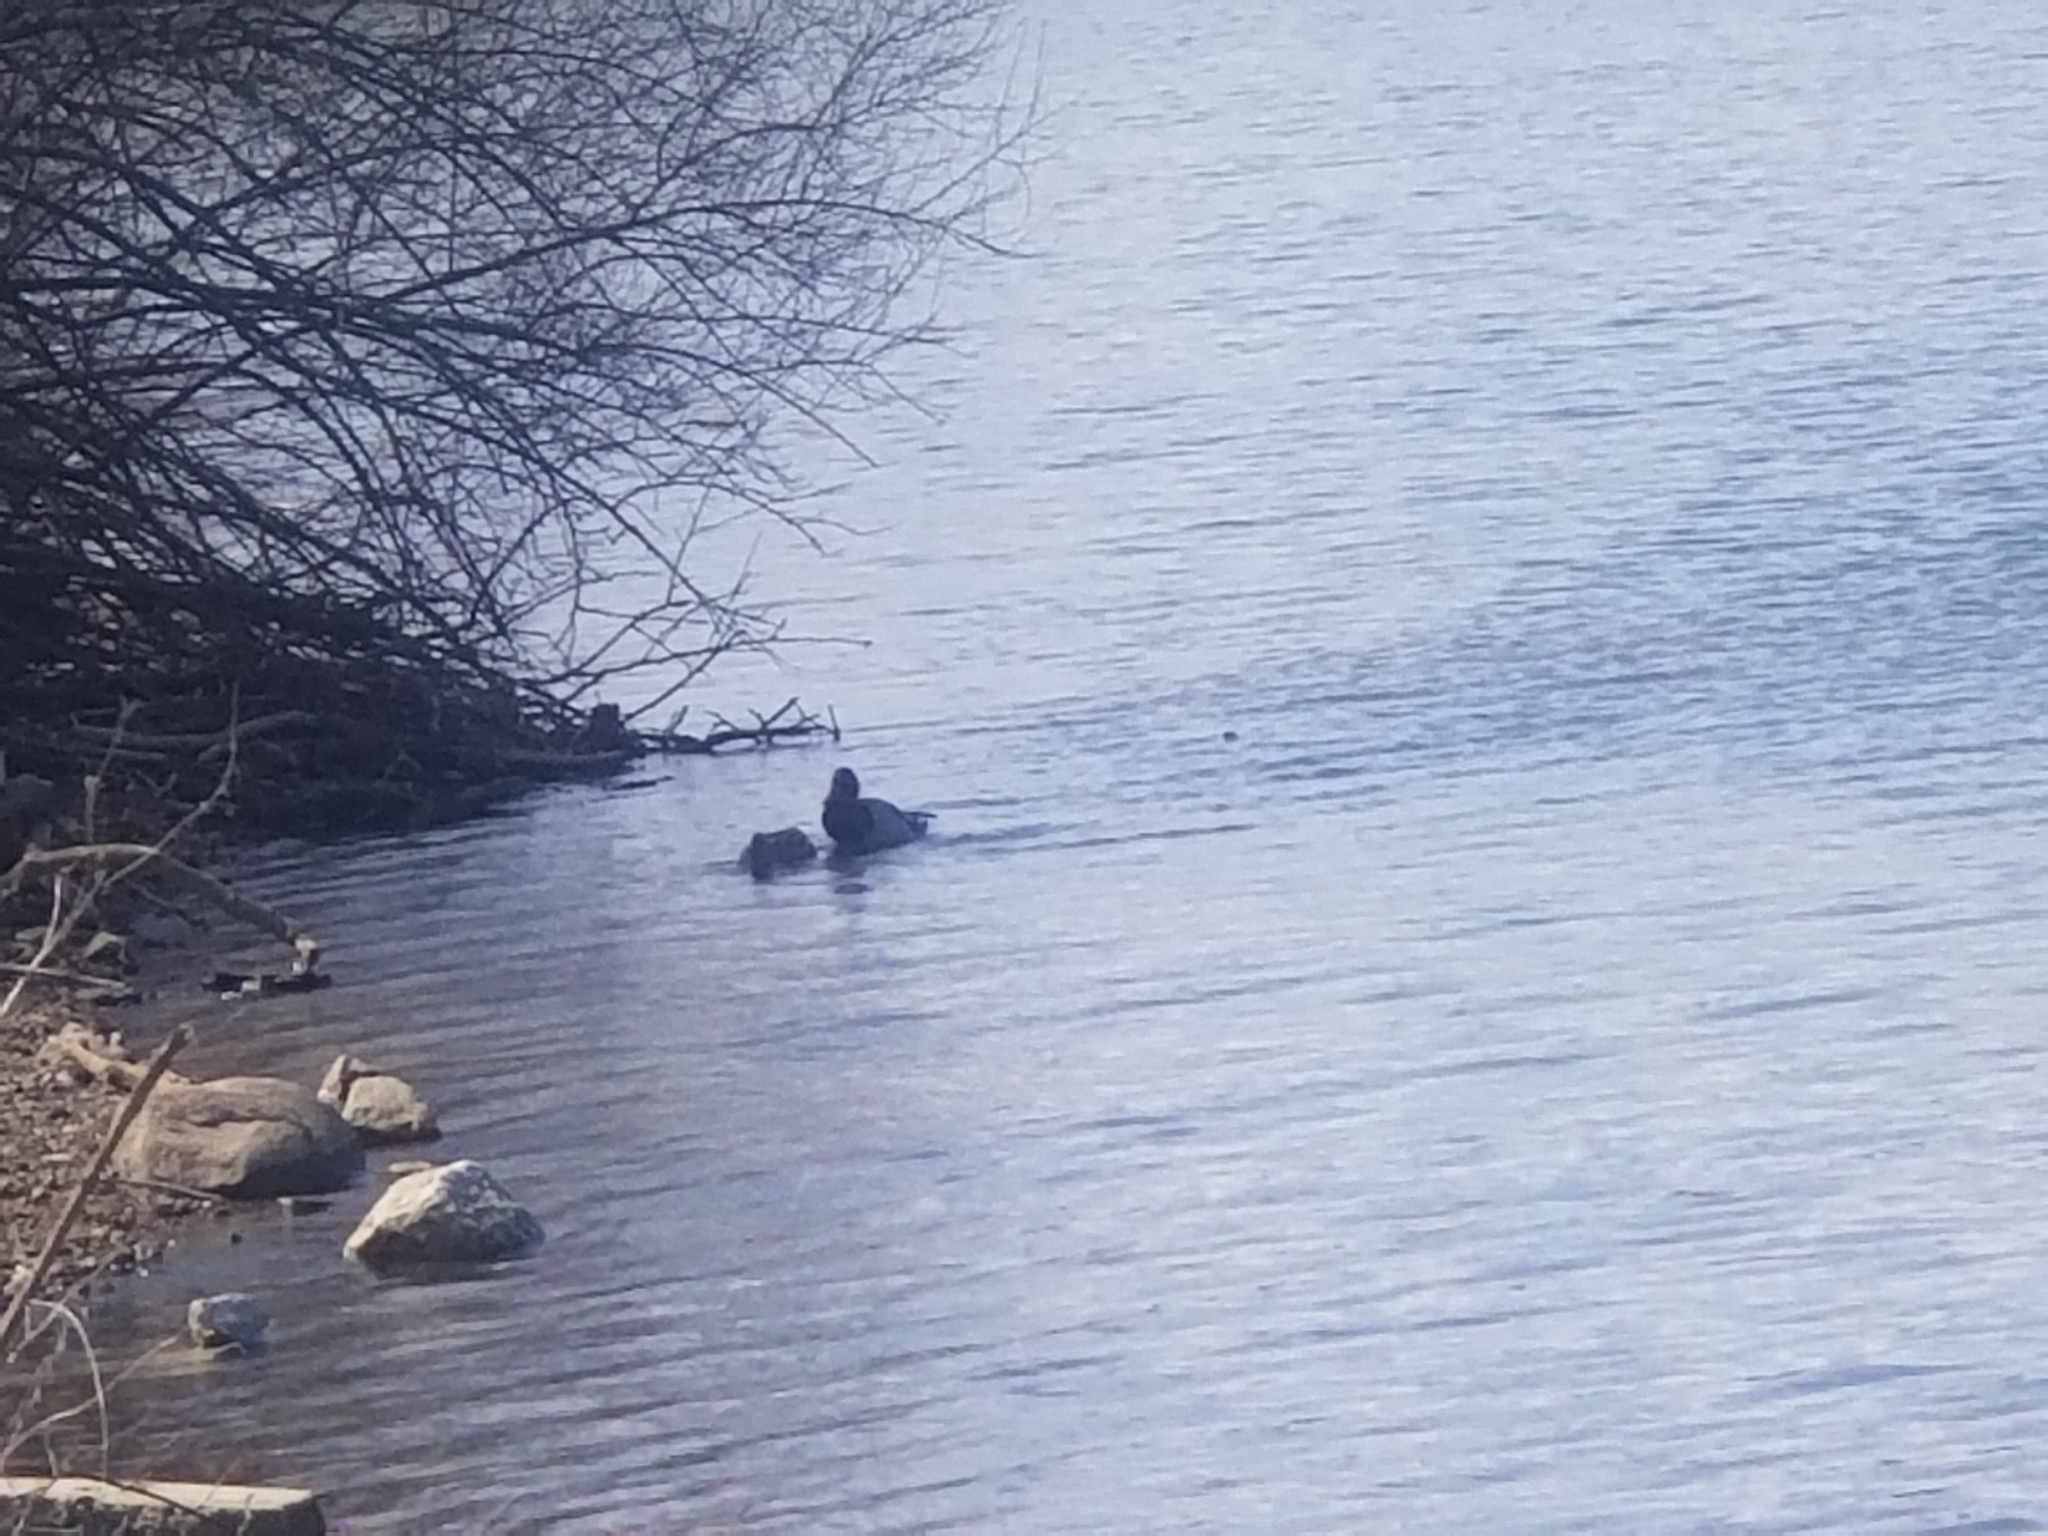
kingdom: Animalia
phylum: Chordata
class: Aves
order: Anseriformes
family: Anatidae
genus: Anas
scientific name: Anas platyrhynchos
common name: Mallard
